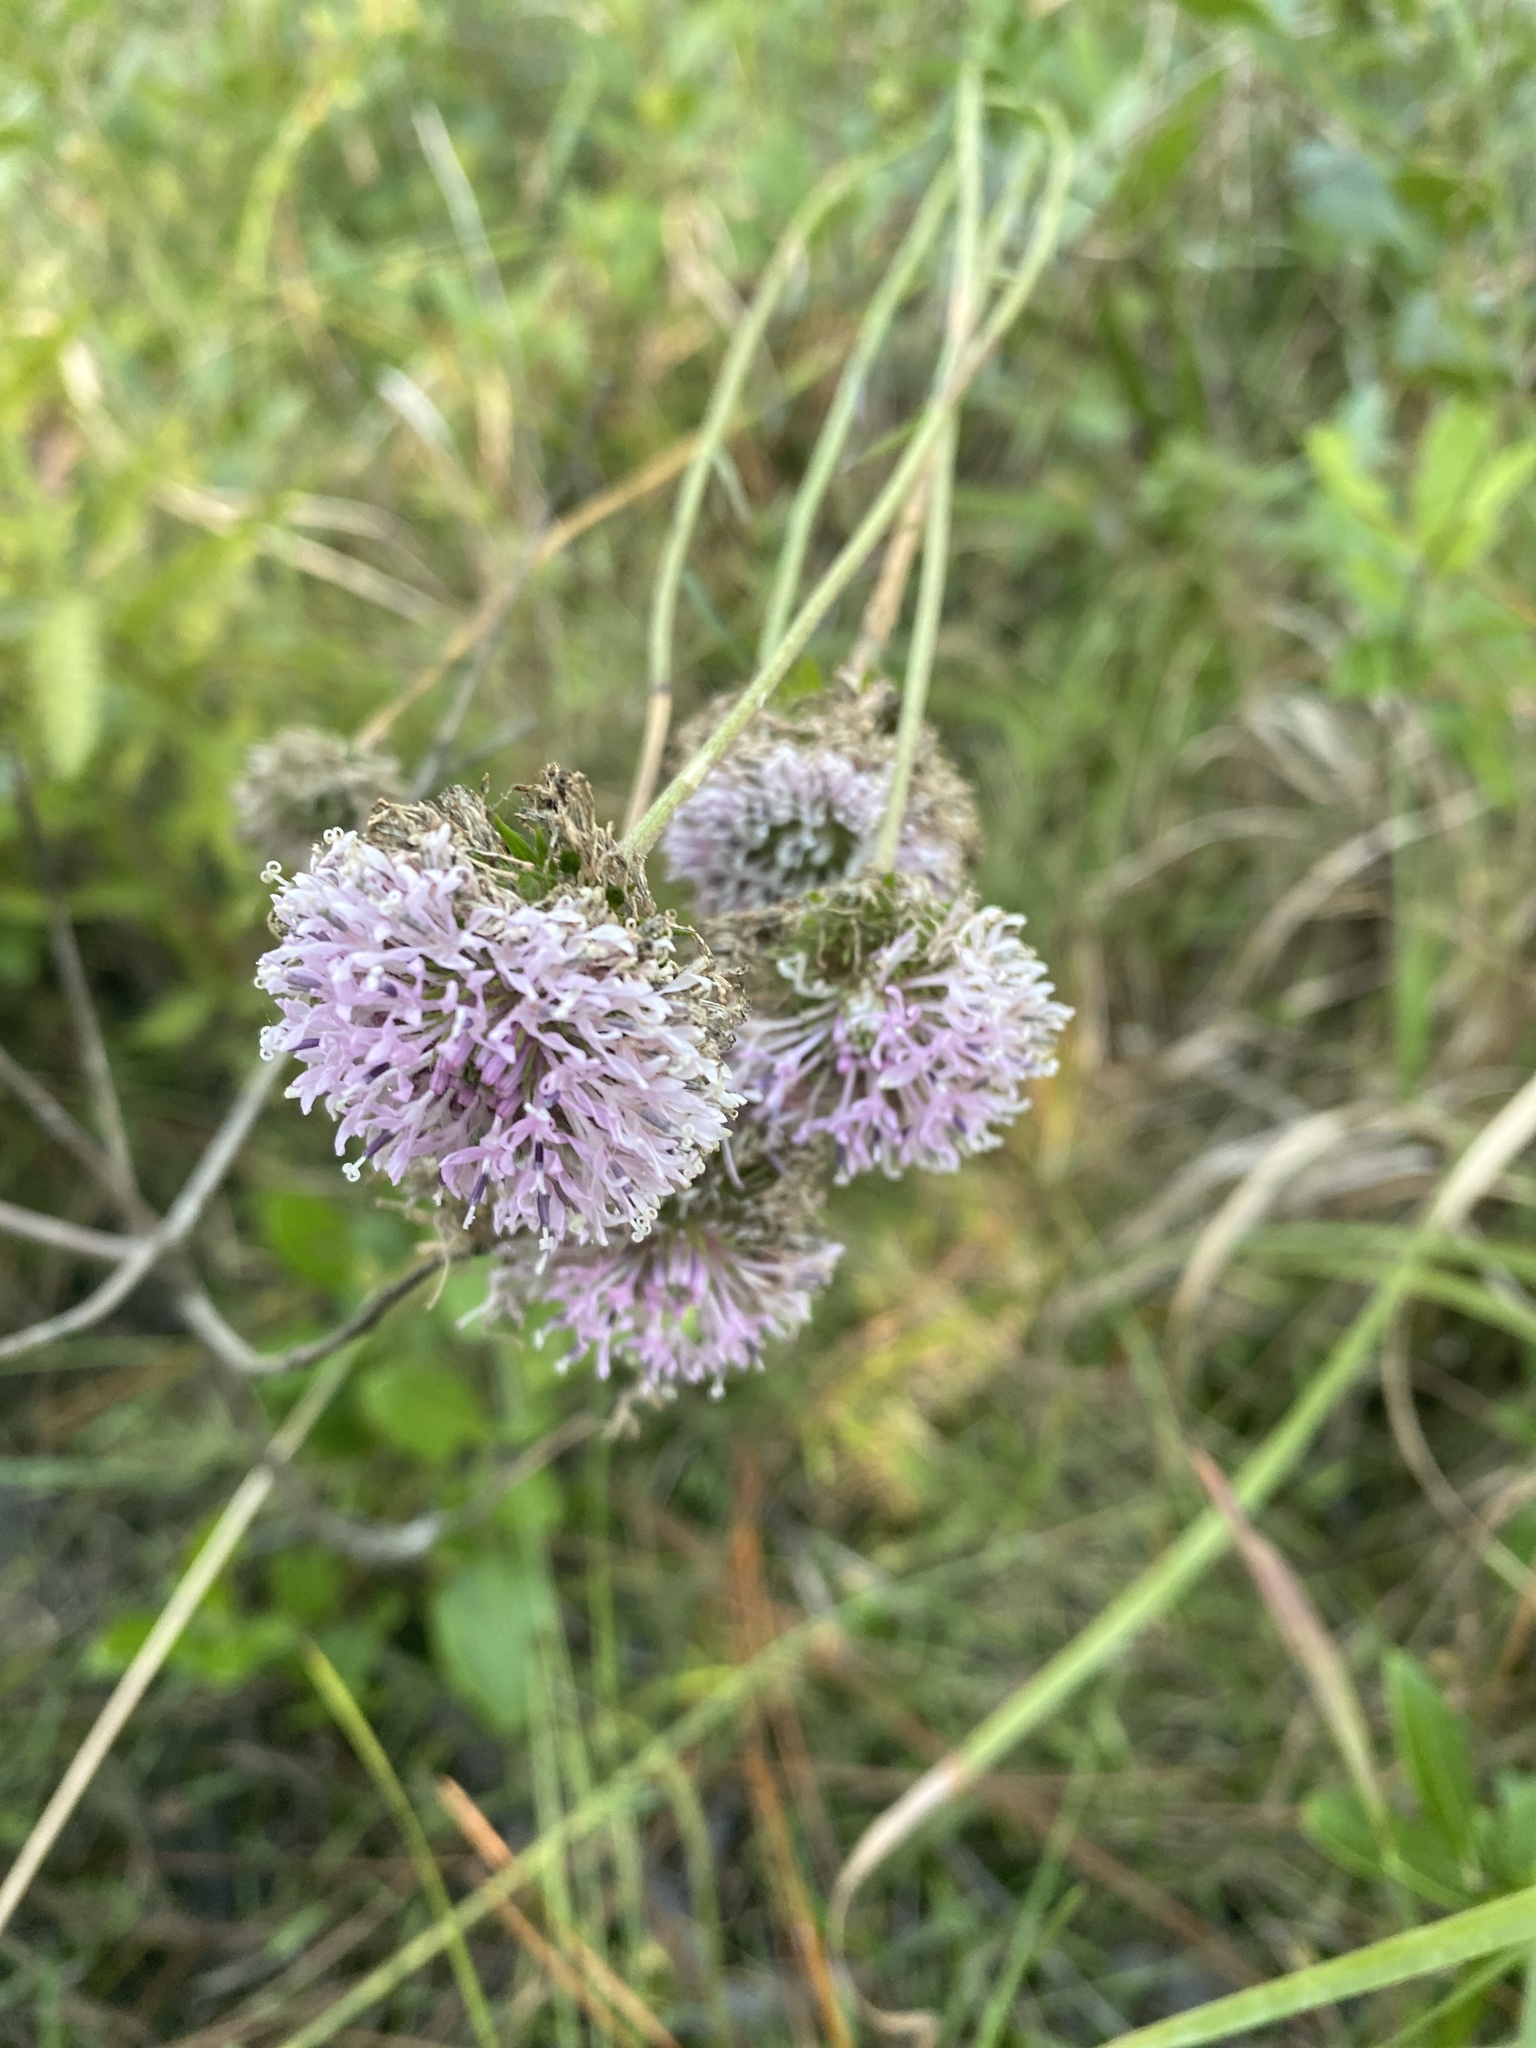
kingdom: Plantae
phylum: Tracheophyta
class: Magnoliopsida
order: Asterales
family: Asteraceae
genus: Marshallia
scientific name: Marshallia graminifolia
